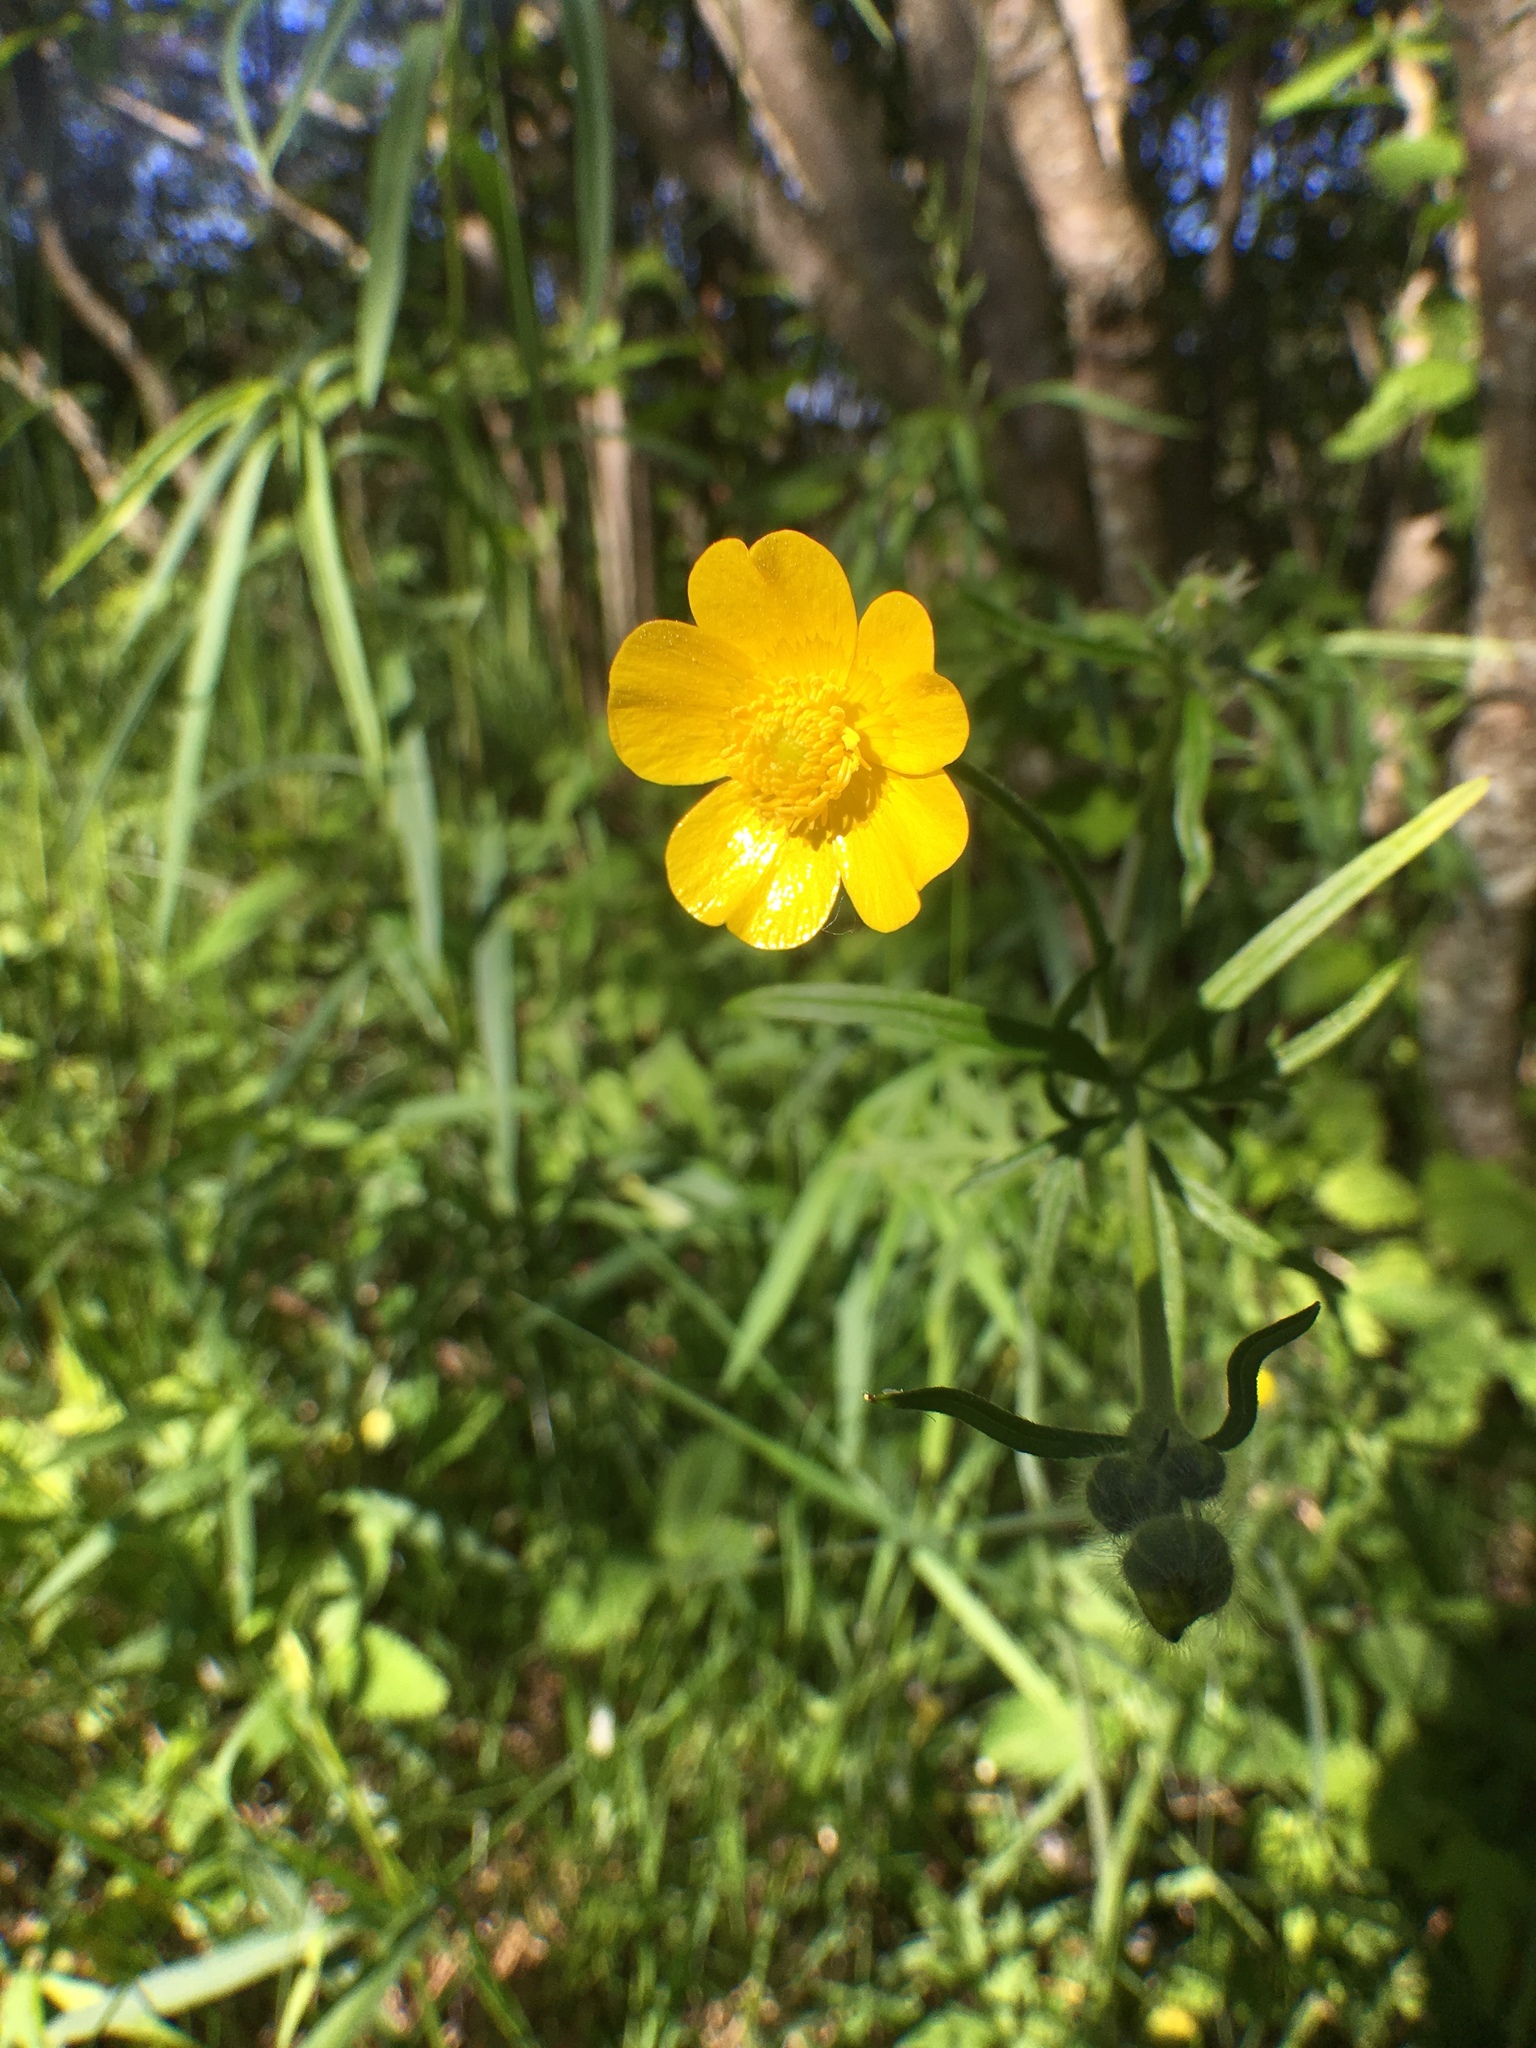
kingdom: Plantae
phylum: Tracheophyta
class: Magnoliopsida
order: Ranunculales
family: Ranunculaceae
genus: Ranunculus
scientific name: Ranunculus acris
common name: Meadow buttercup
